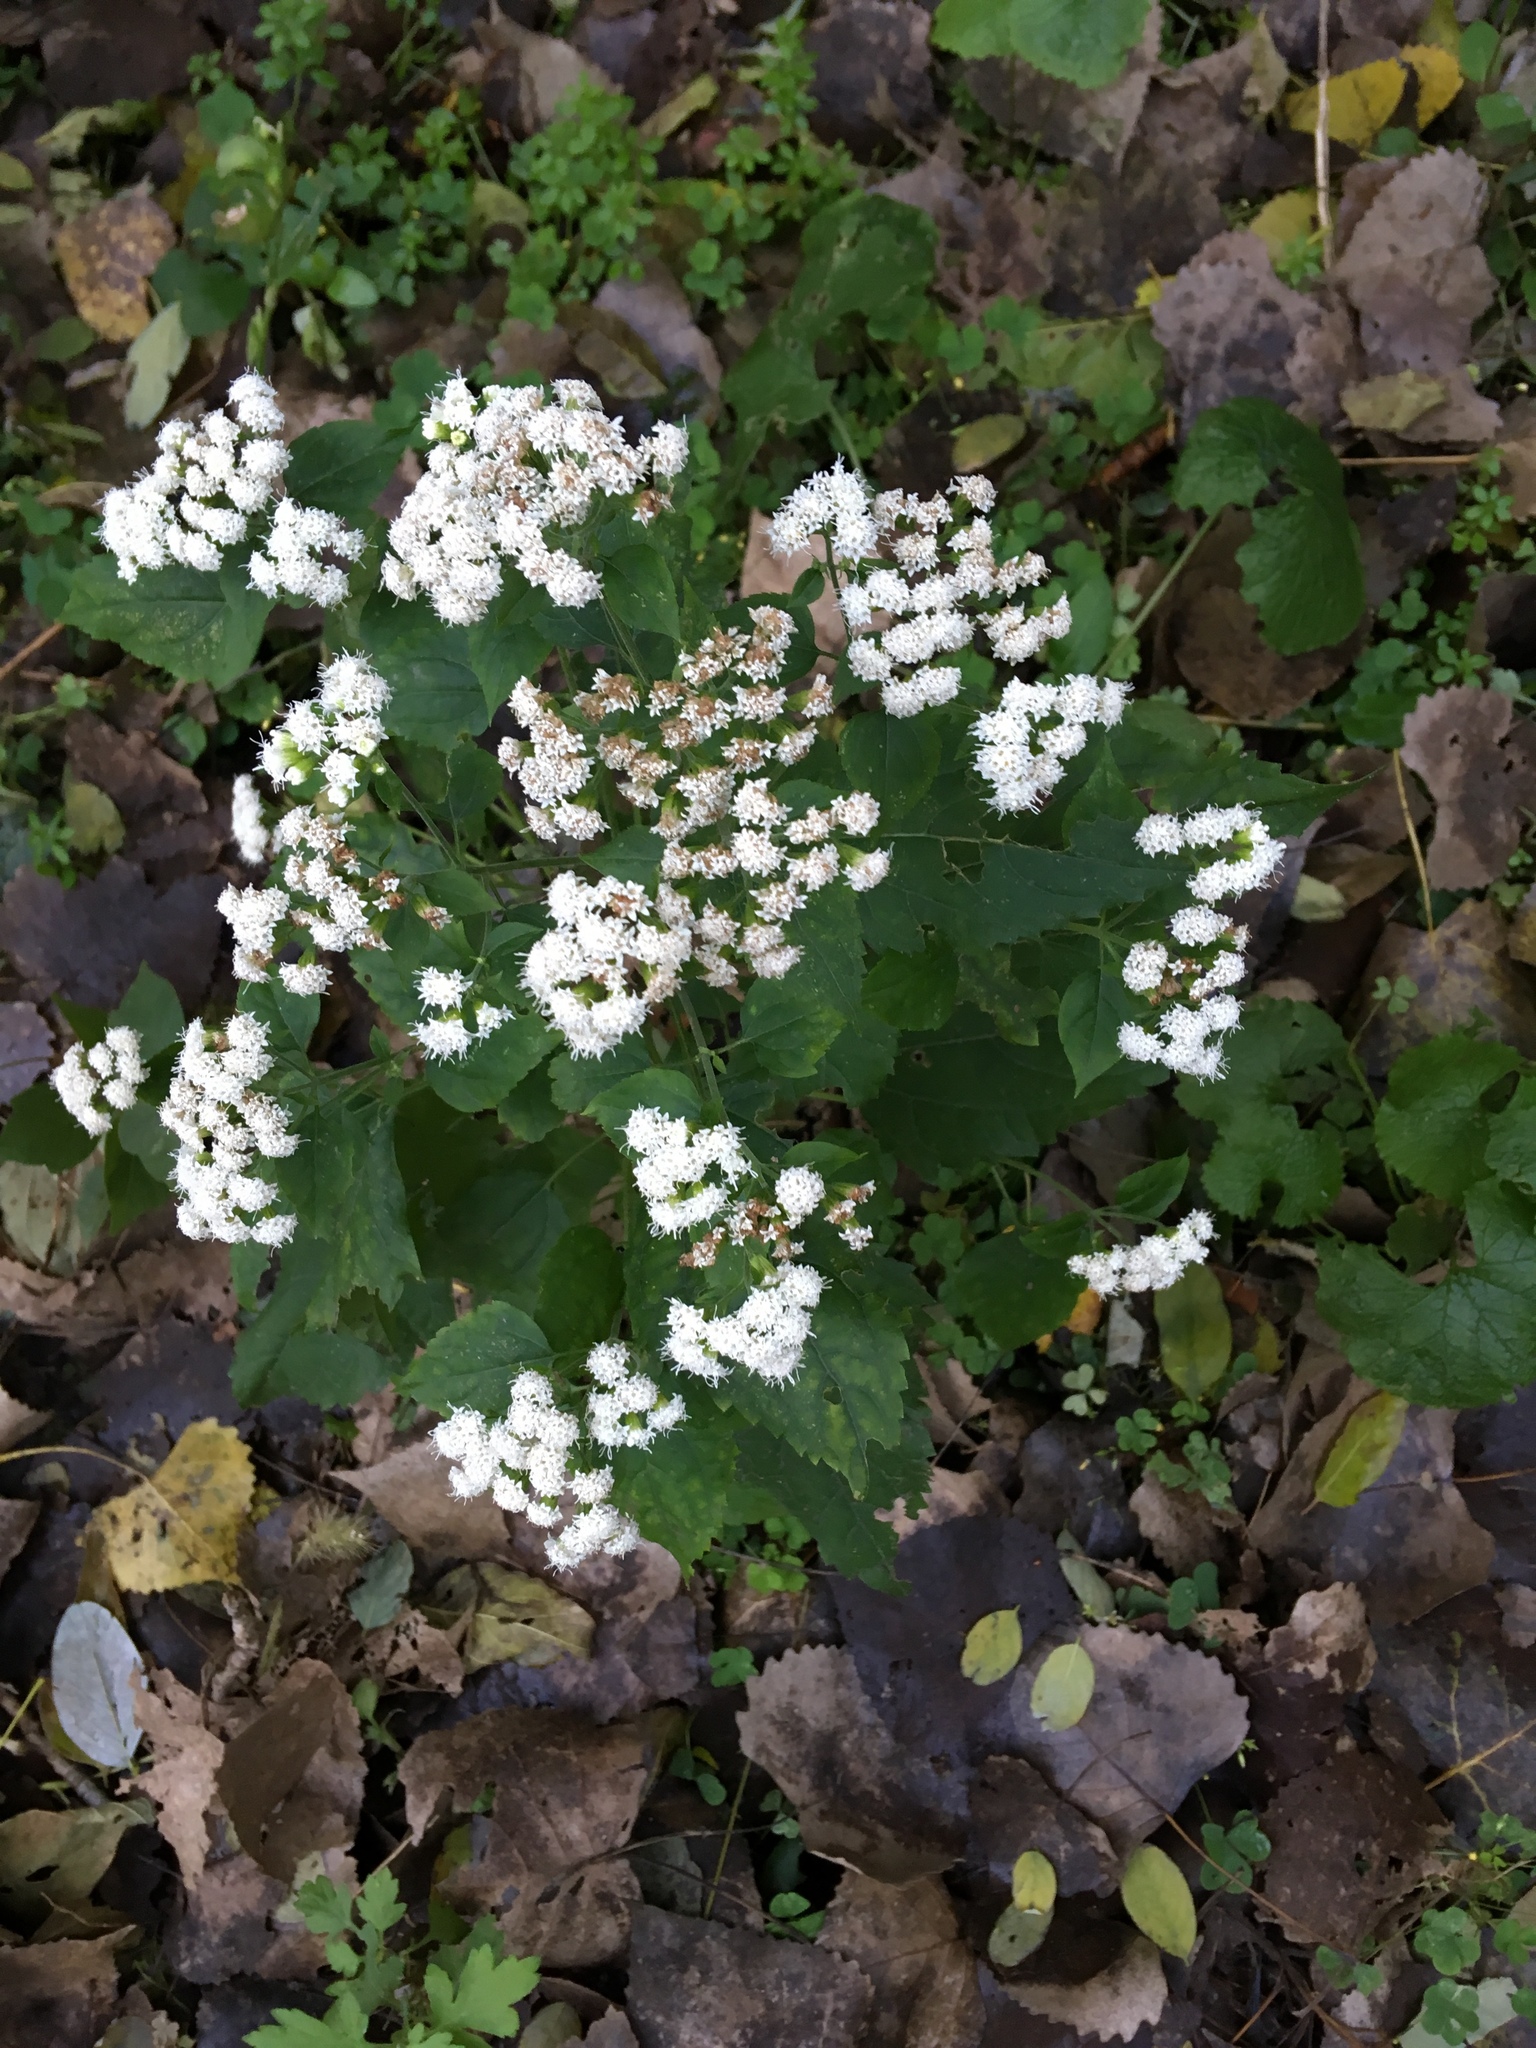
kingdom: Plantae
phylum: Tracheophyta
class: Magnoliopsida
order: Asterales
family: Asteraceae
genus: Ageratina
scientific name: Ageratina altissima
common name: White snakeroot
